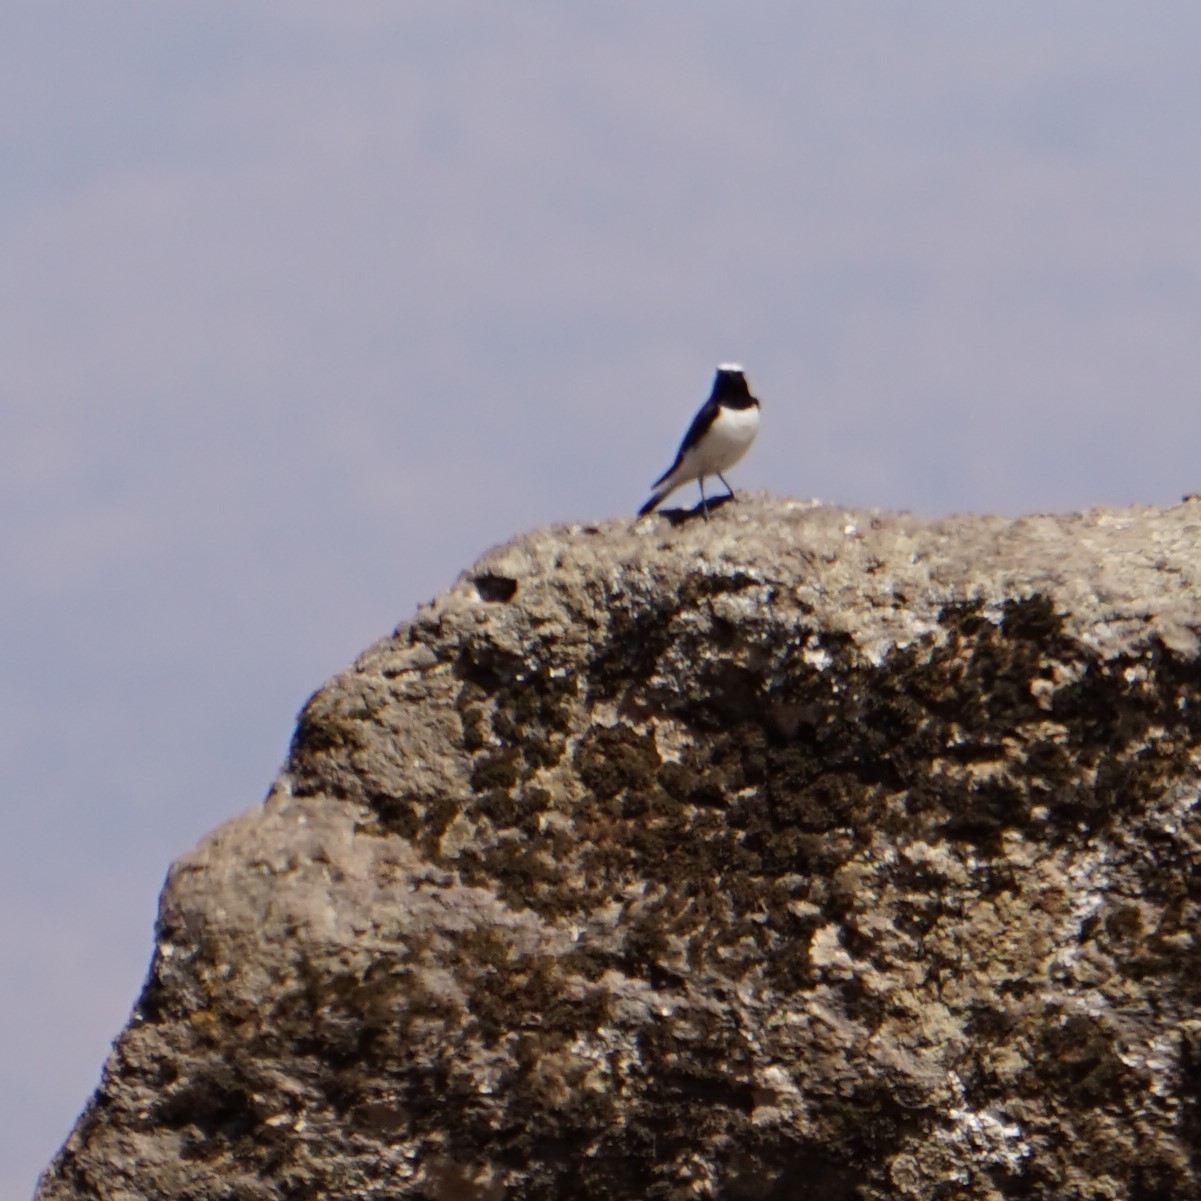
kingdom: Animalia
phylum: Chordata
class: Aves
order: Passeriformes
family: Muscicapidae
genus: Oenanthe
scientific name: Oenanthe pleschanka
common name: Pied wheatear
